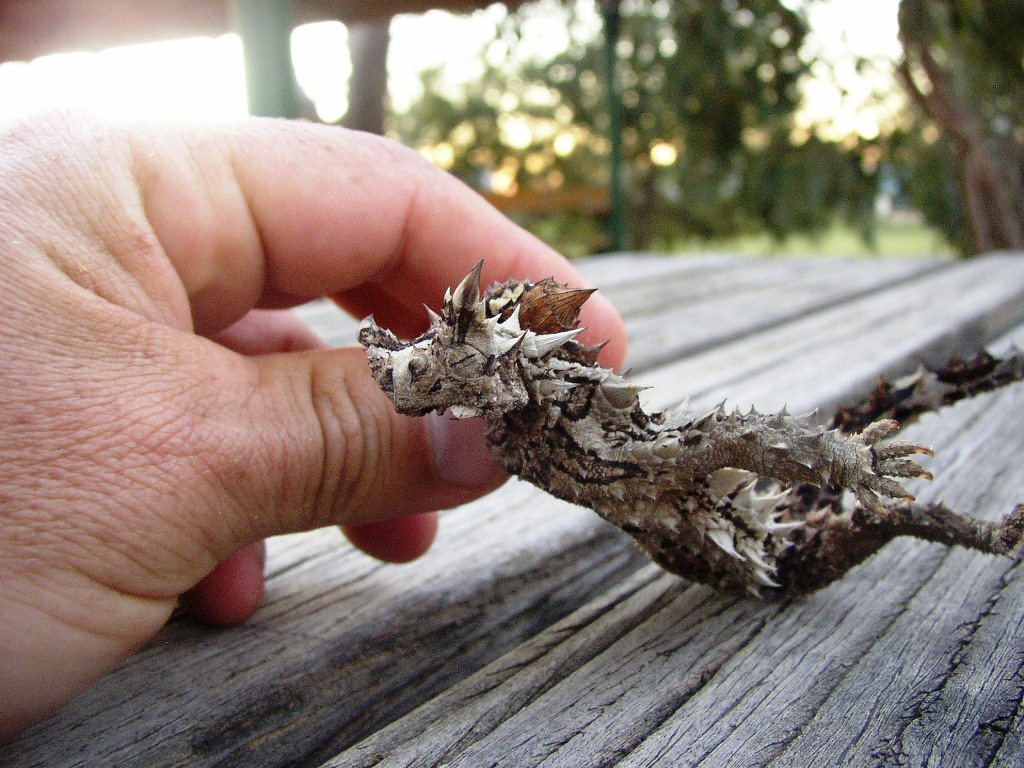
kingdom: Animalia
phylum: Chordata
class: Squamata
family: Agamidae
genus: Moloch
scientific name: Moloch horridus
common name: Mountain devil
